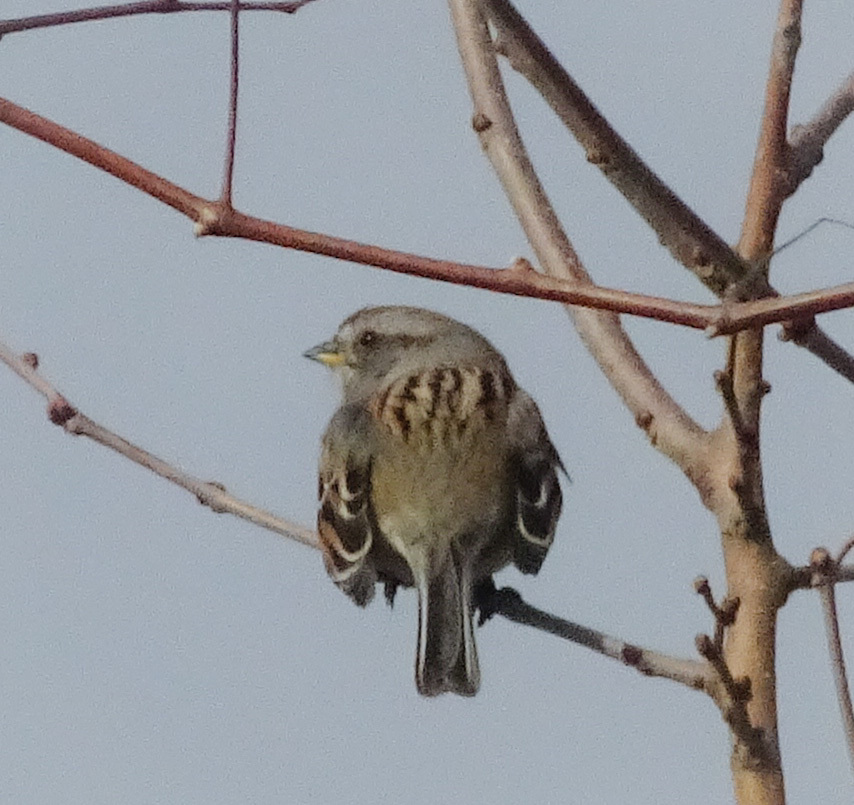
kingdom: Animalia
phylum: Chordata
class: Aves
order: Passeriformes
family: Passerellidae
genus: Spizelloides
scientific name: Spizelloides arborea
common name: American tree sparrow
